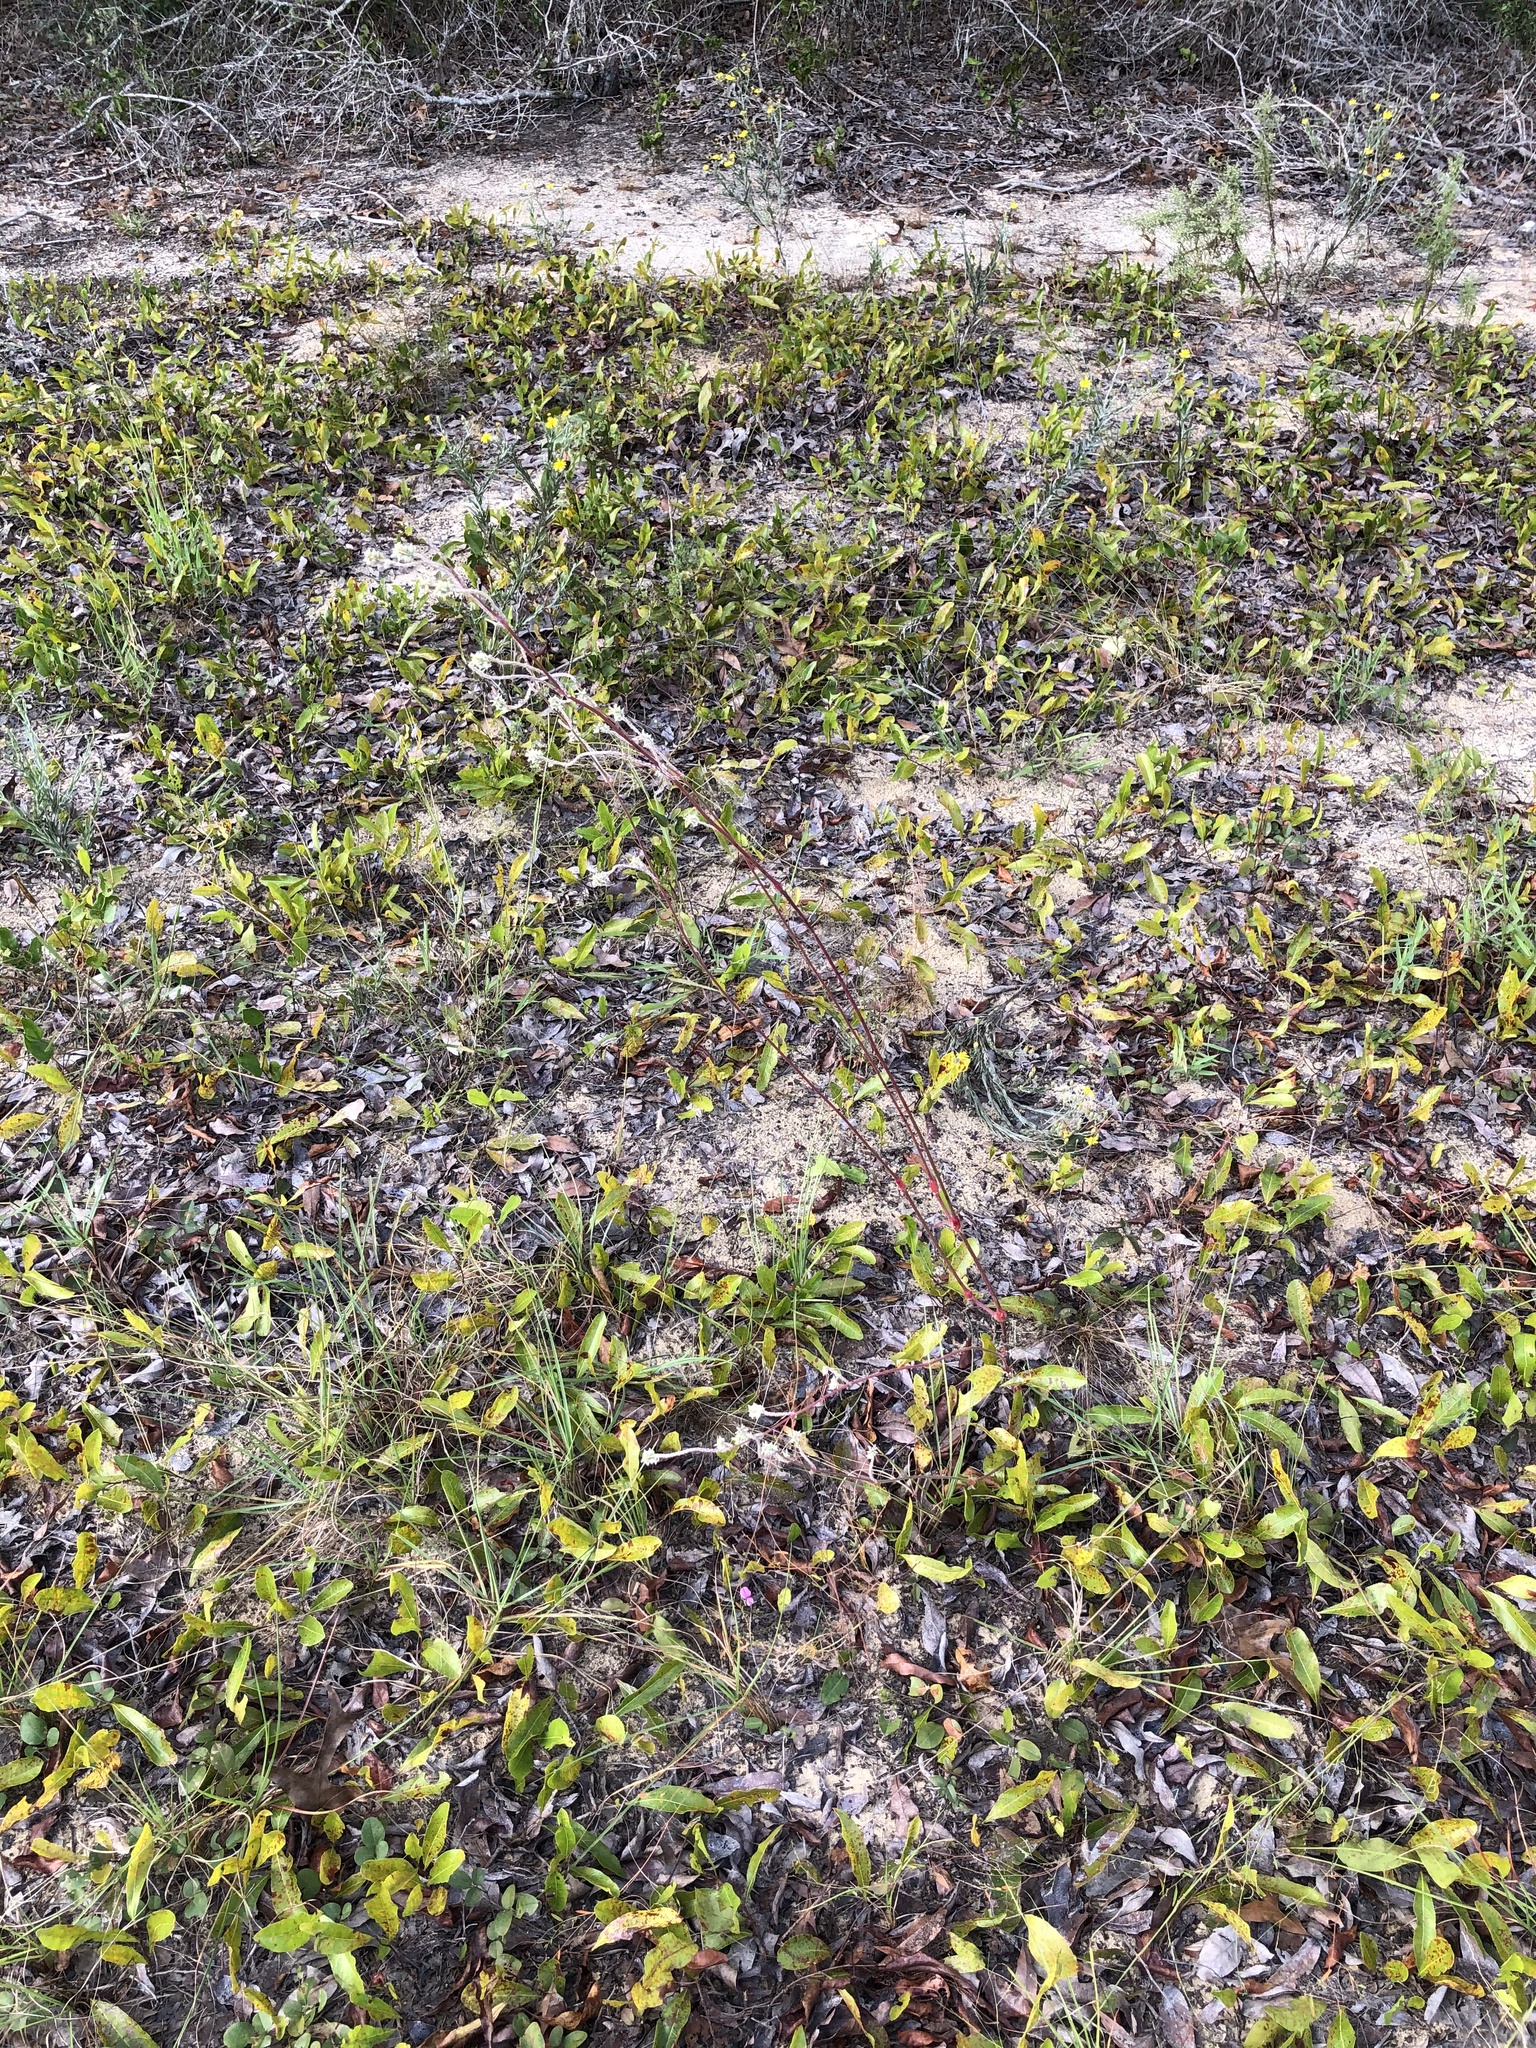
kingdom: Plantae
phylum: Tracheophyta
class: Magnoliopsida
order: Caryophyllales
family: Amaranthaceae
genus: Froelichia
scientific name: Froelichia floridana
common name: Florida snake-cotton
